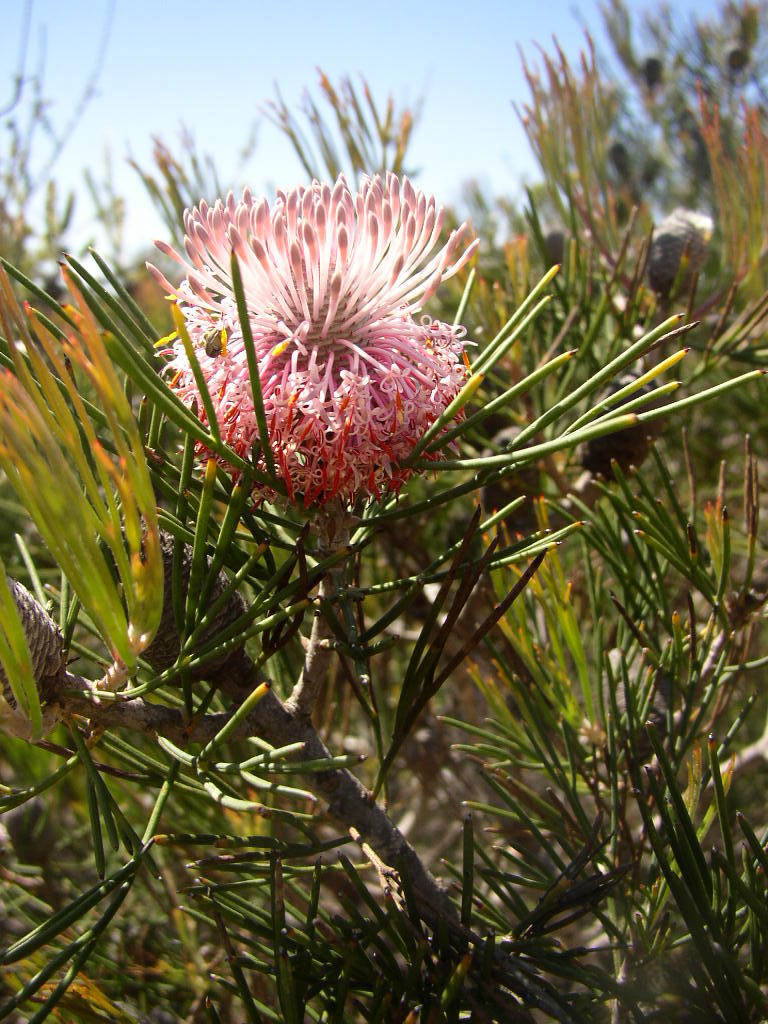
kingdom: Plantae
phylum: Tracheophyta
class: Magnoliopsida
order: Proteales
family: Proteaceae
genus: Isopogon
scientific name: Isopogon divergens
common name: Spreading-coneflower
